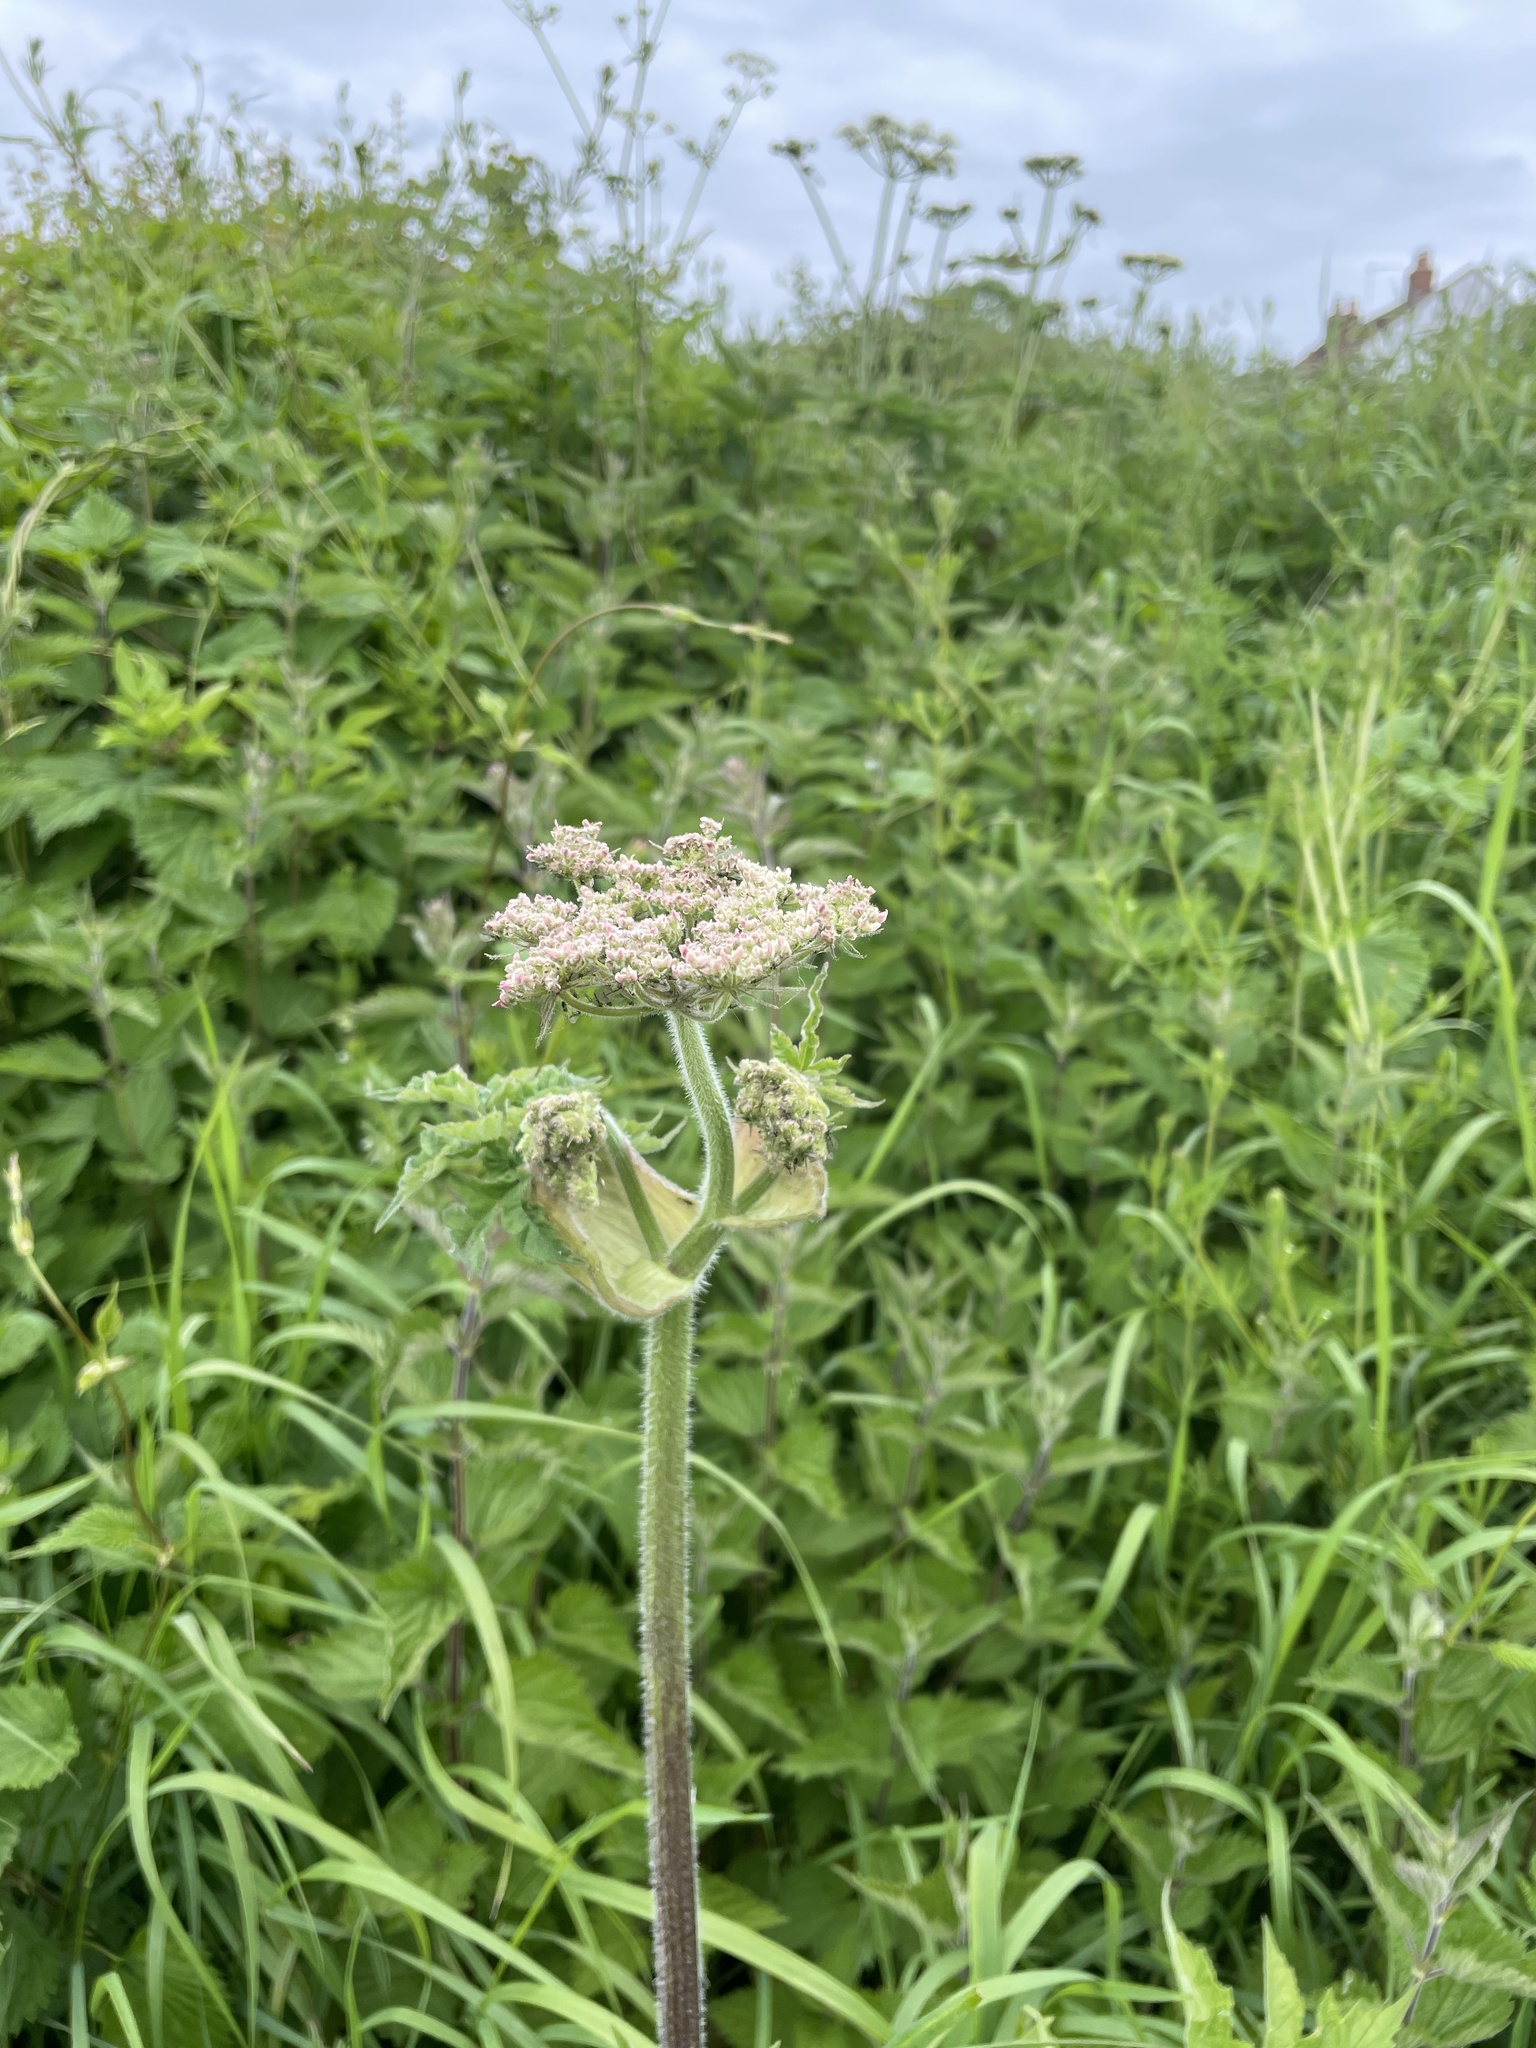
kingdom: Plantae
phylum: Tracheophyta
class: Magnoliopsida
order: Apiales
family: Apiaceae
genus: Heracleum
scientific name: Heracleum sphondylium
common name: Hogweed
